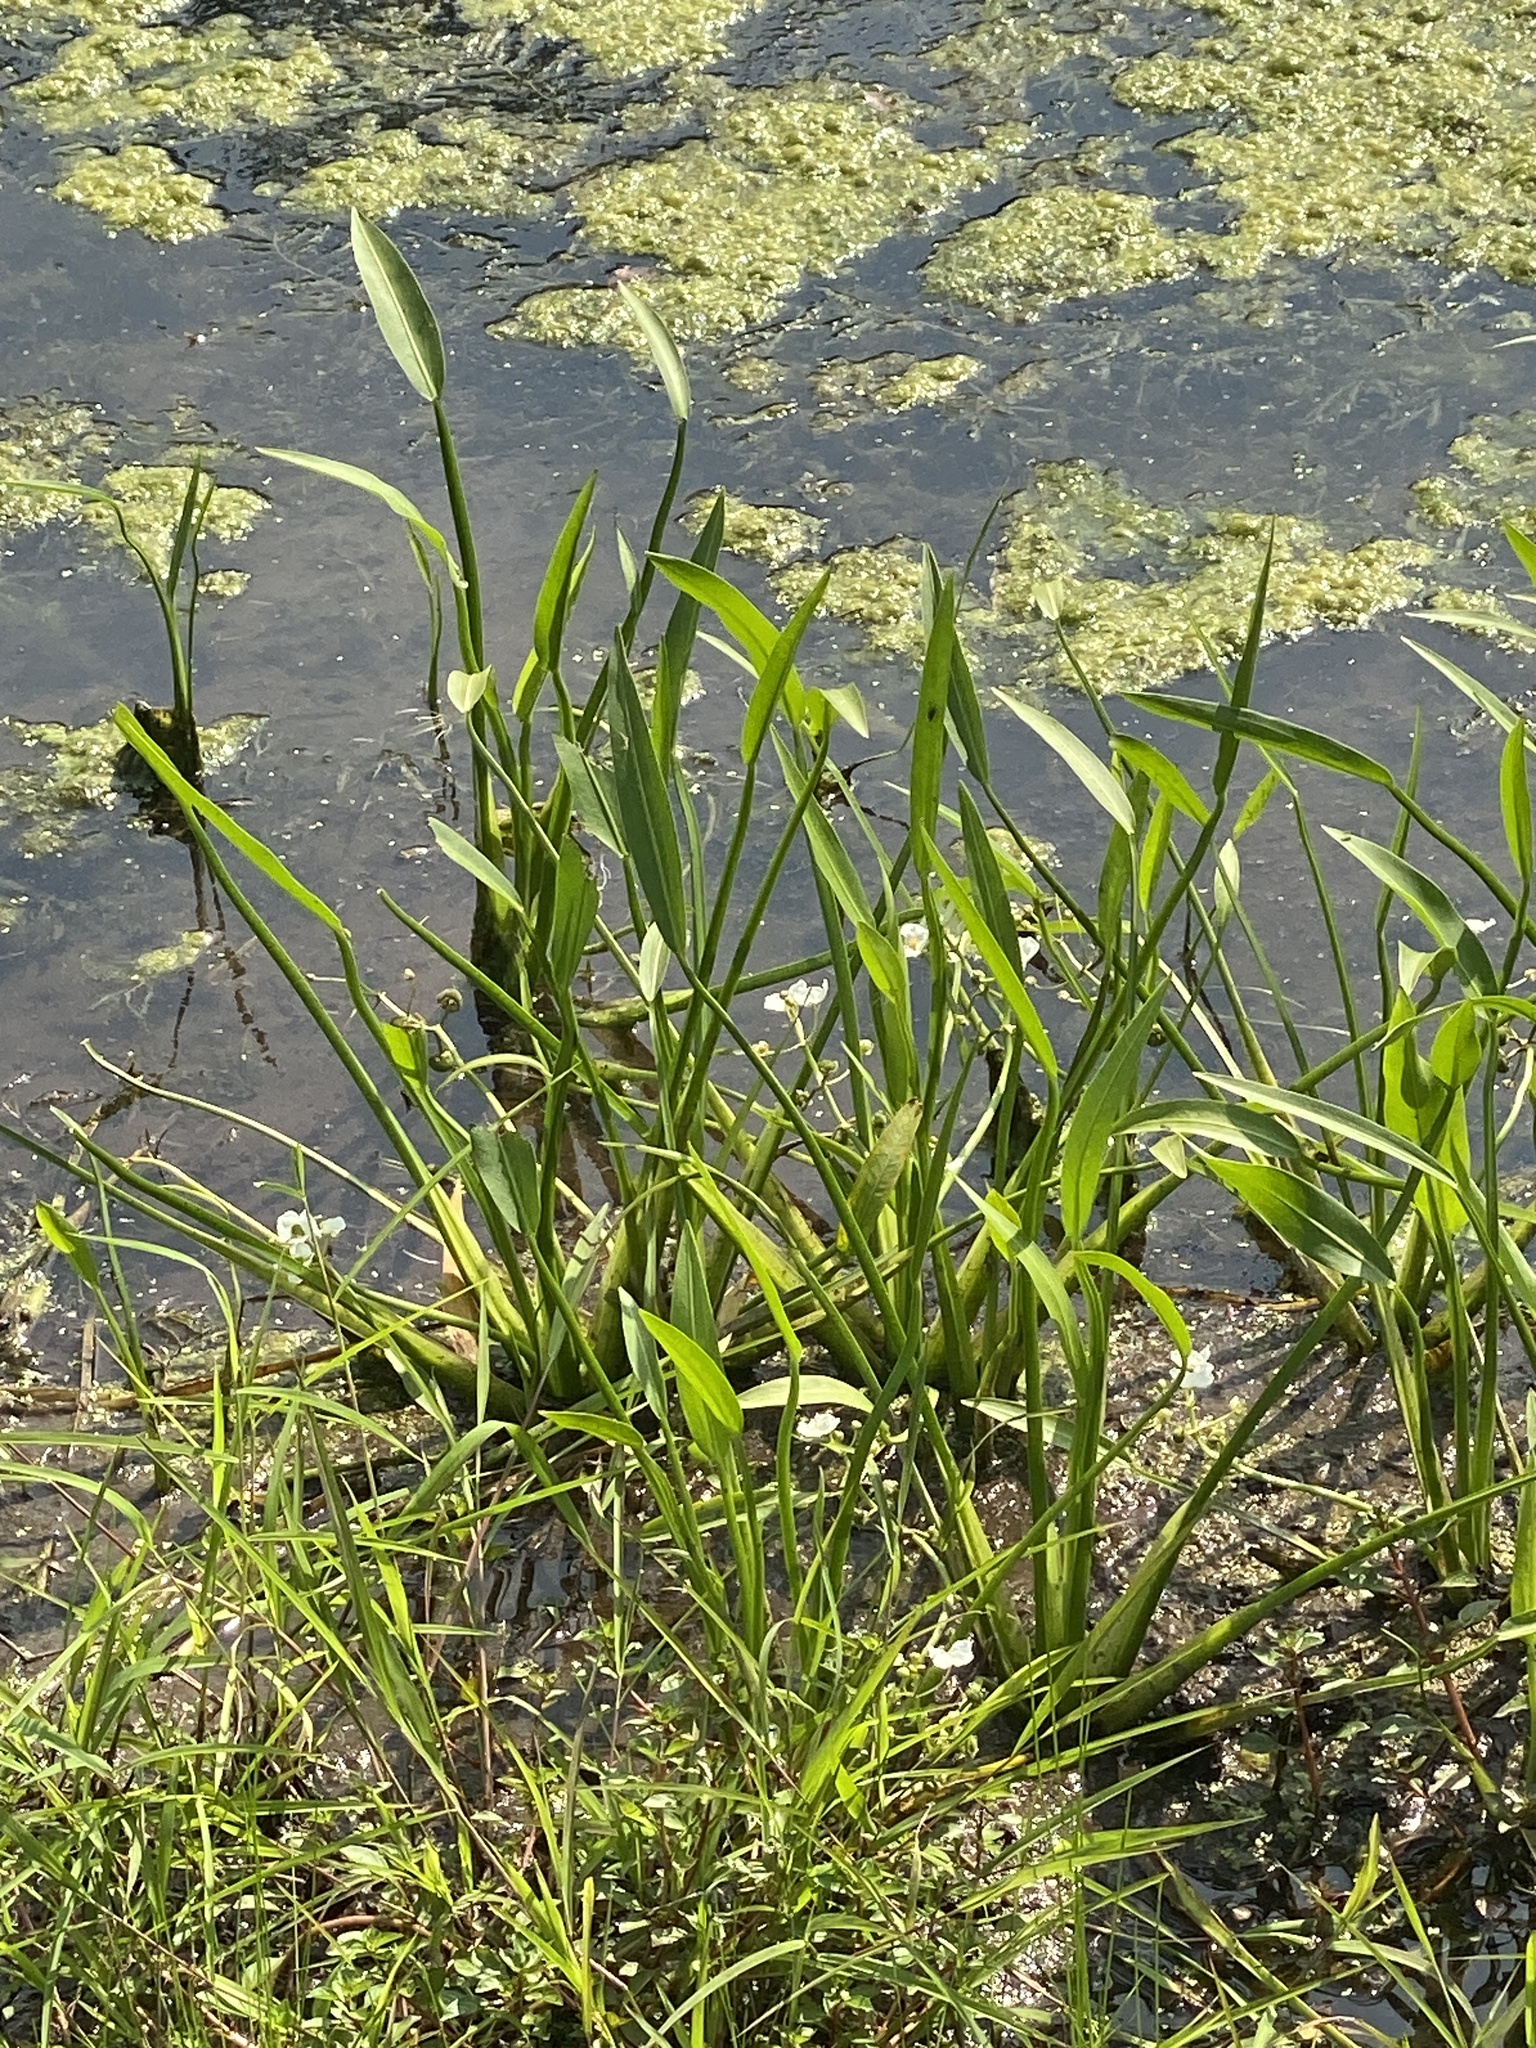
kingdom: Plantae
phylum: Tracheophyta
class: Liliopsida
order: Alismatales
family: Alismataceae
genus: Sagittaria
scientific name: Sagittaria platyphylla
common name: Broad-leaf arrowhead
